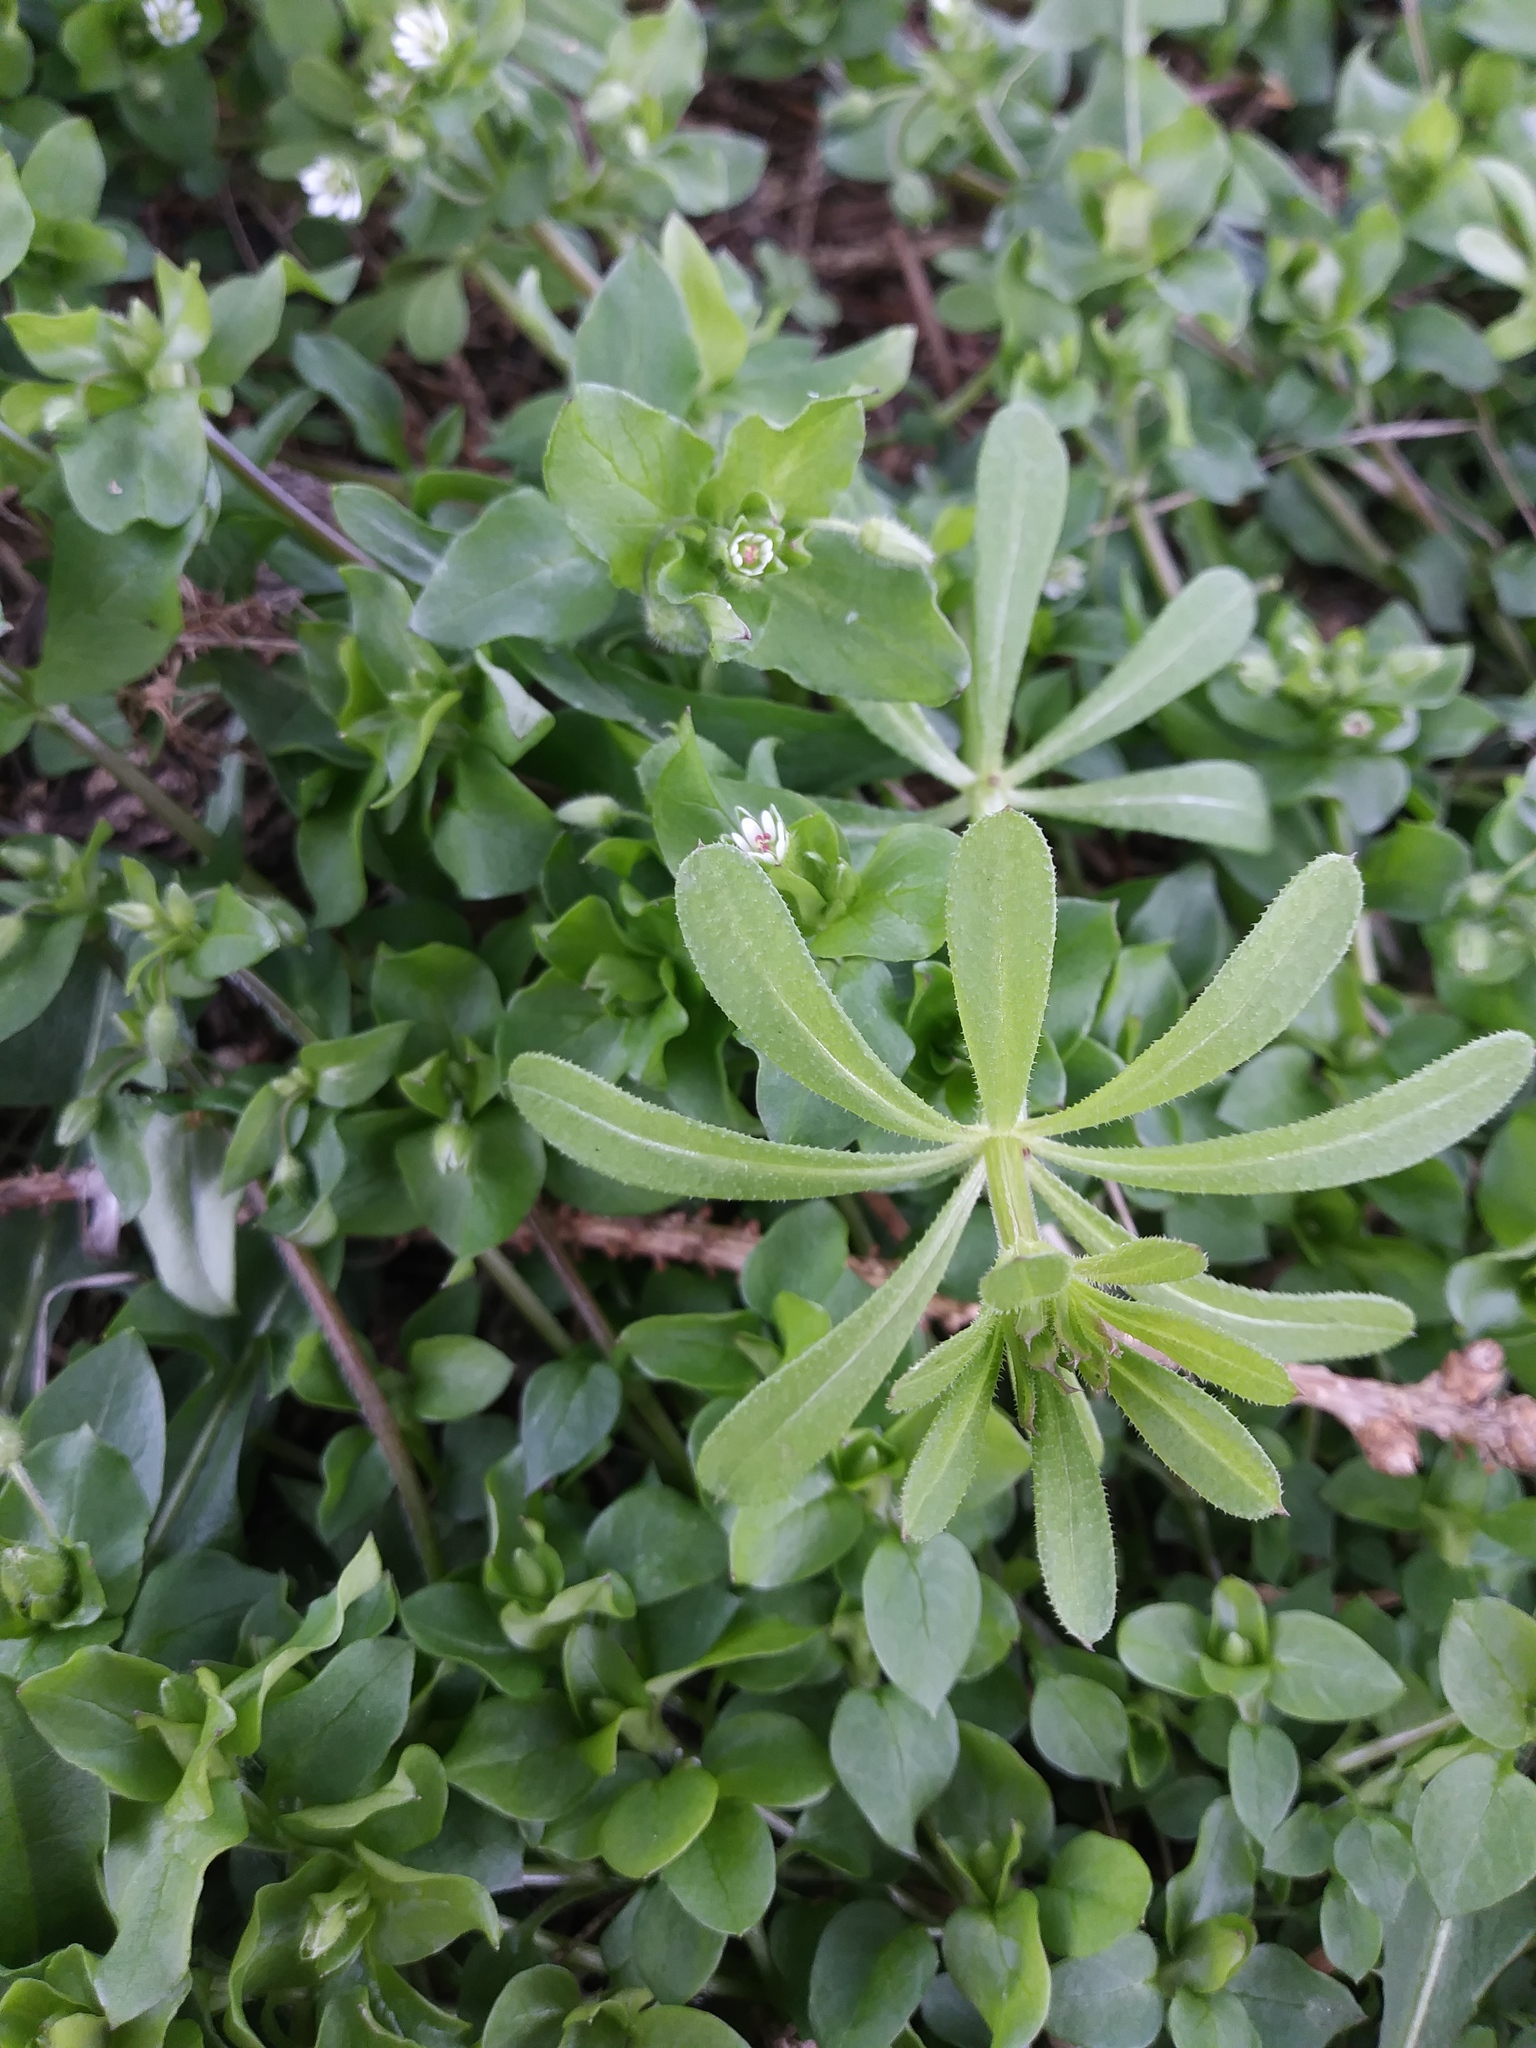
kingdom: Plantae
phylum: Tracheophyta
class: Magnoliopsida
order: Gentianales
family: Rubiaceae
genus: Galium
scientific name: Galium aparine
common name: Cleavers
